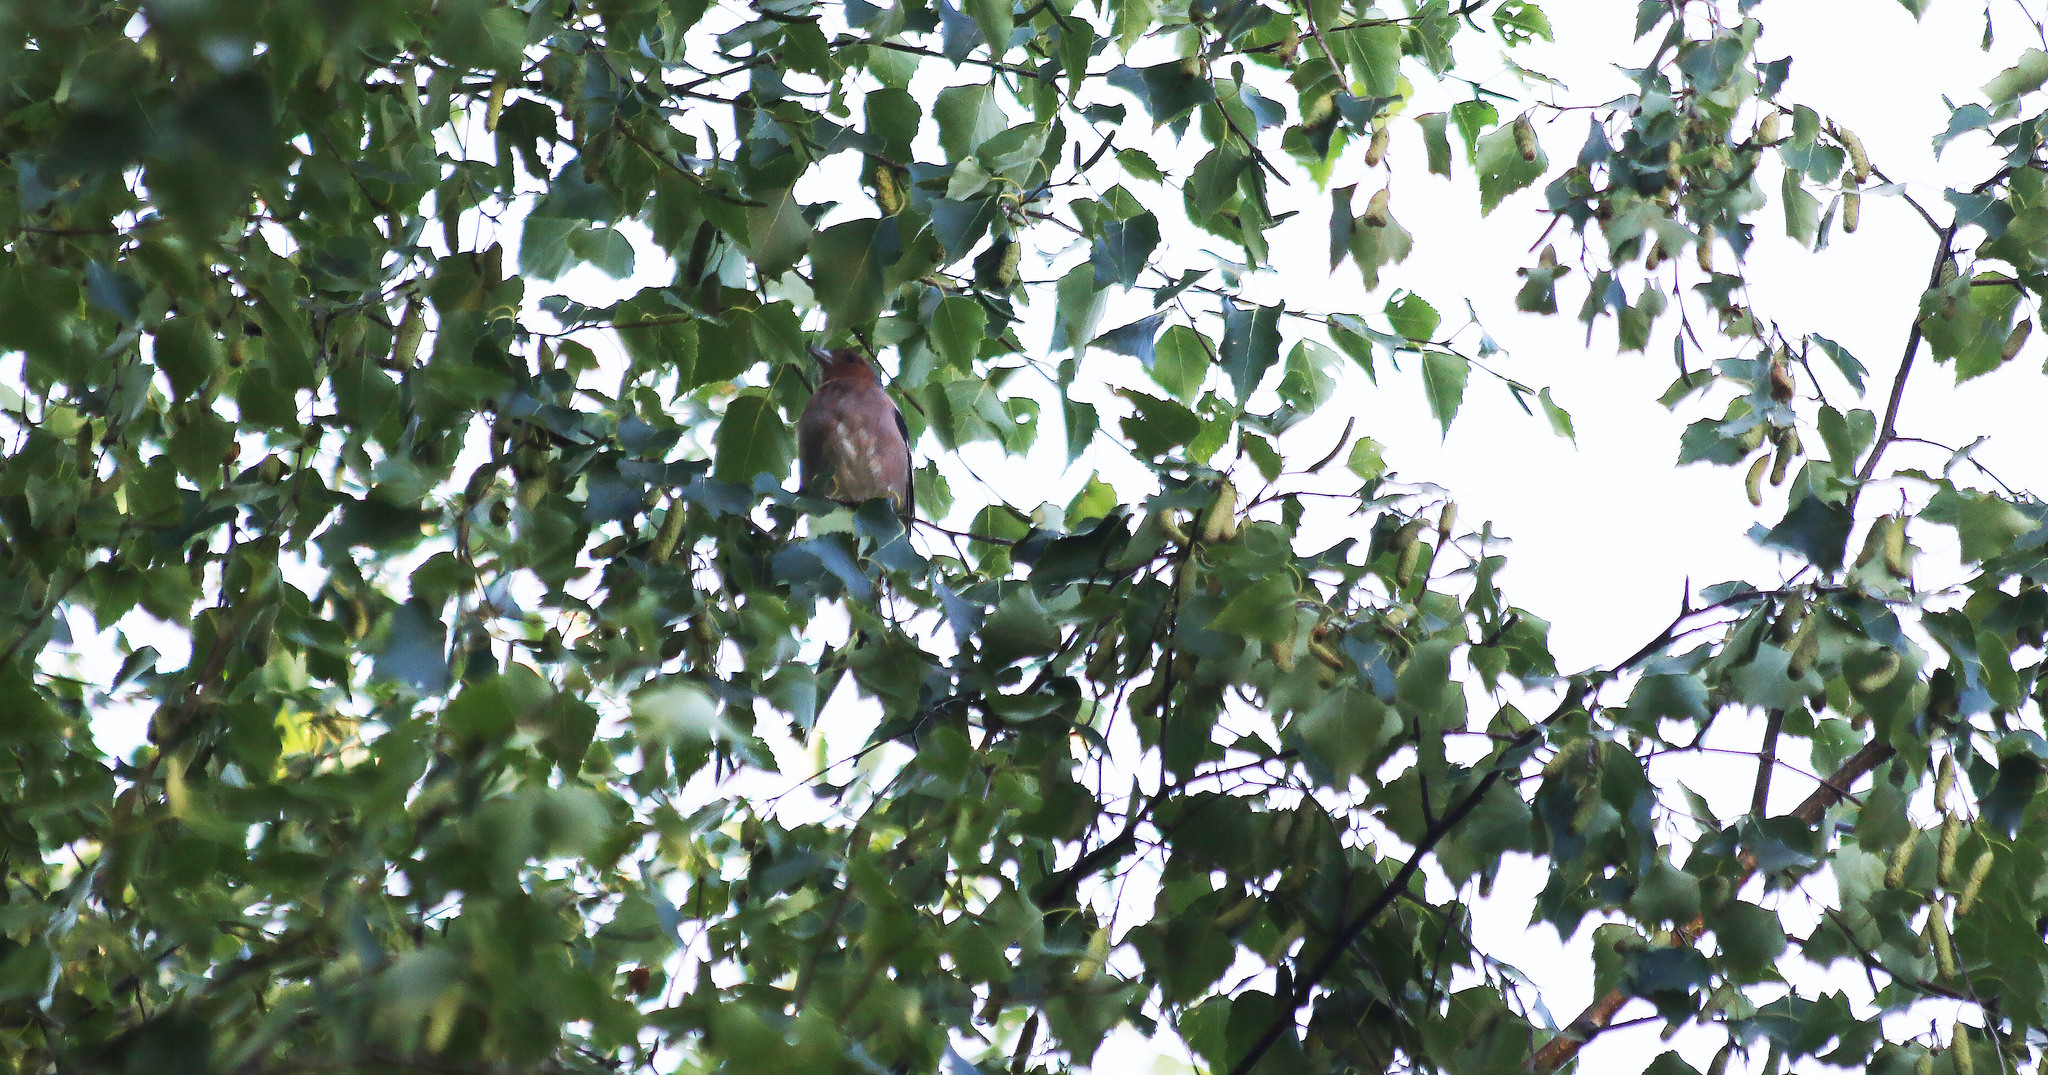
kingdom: Animalia
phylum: Chordata
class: Aves
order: Passeriformes
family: Fringillidae
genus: Fringilla
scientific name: Fringilla coelebs
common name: Common chaffinch
